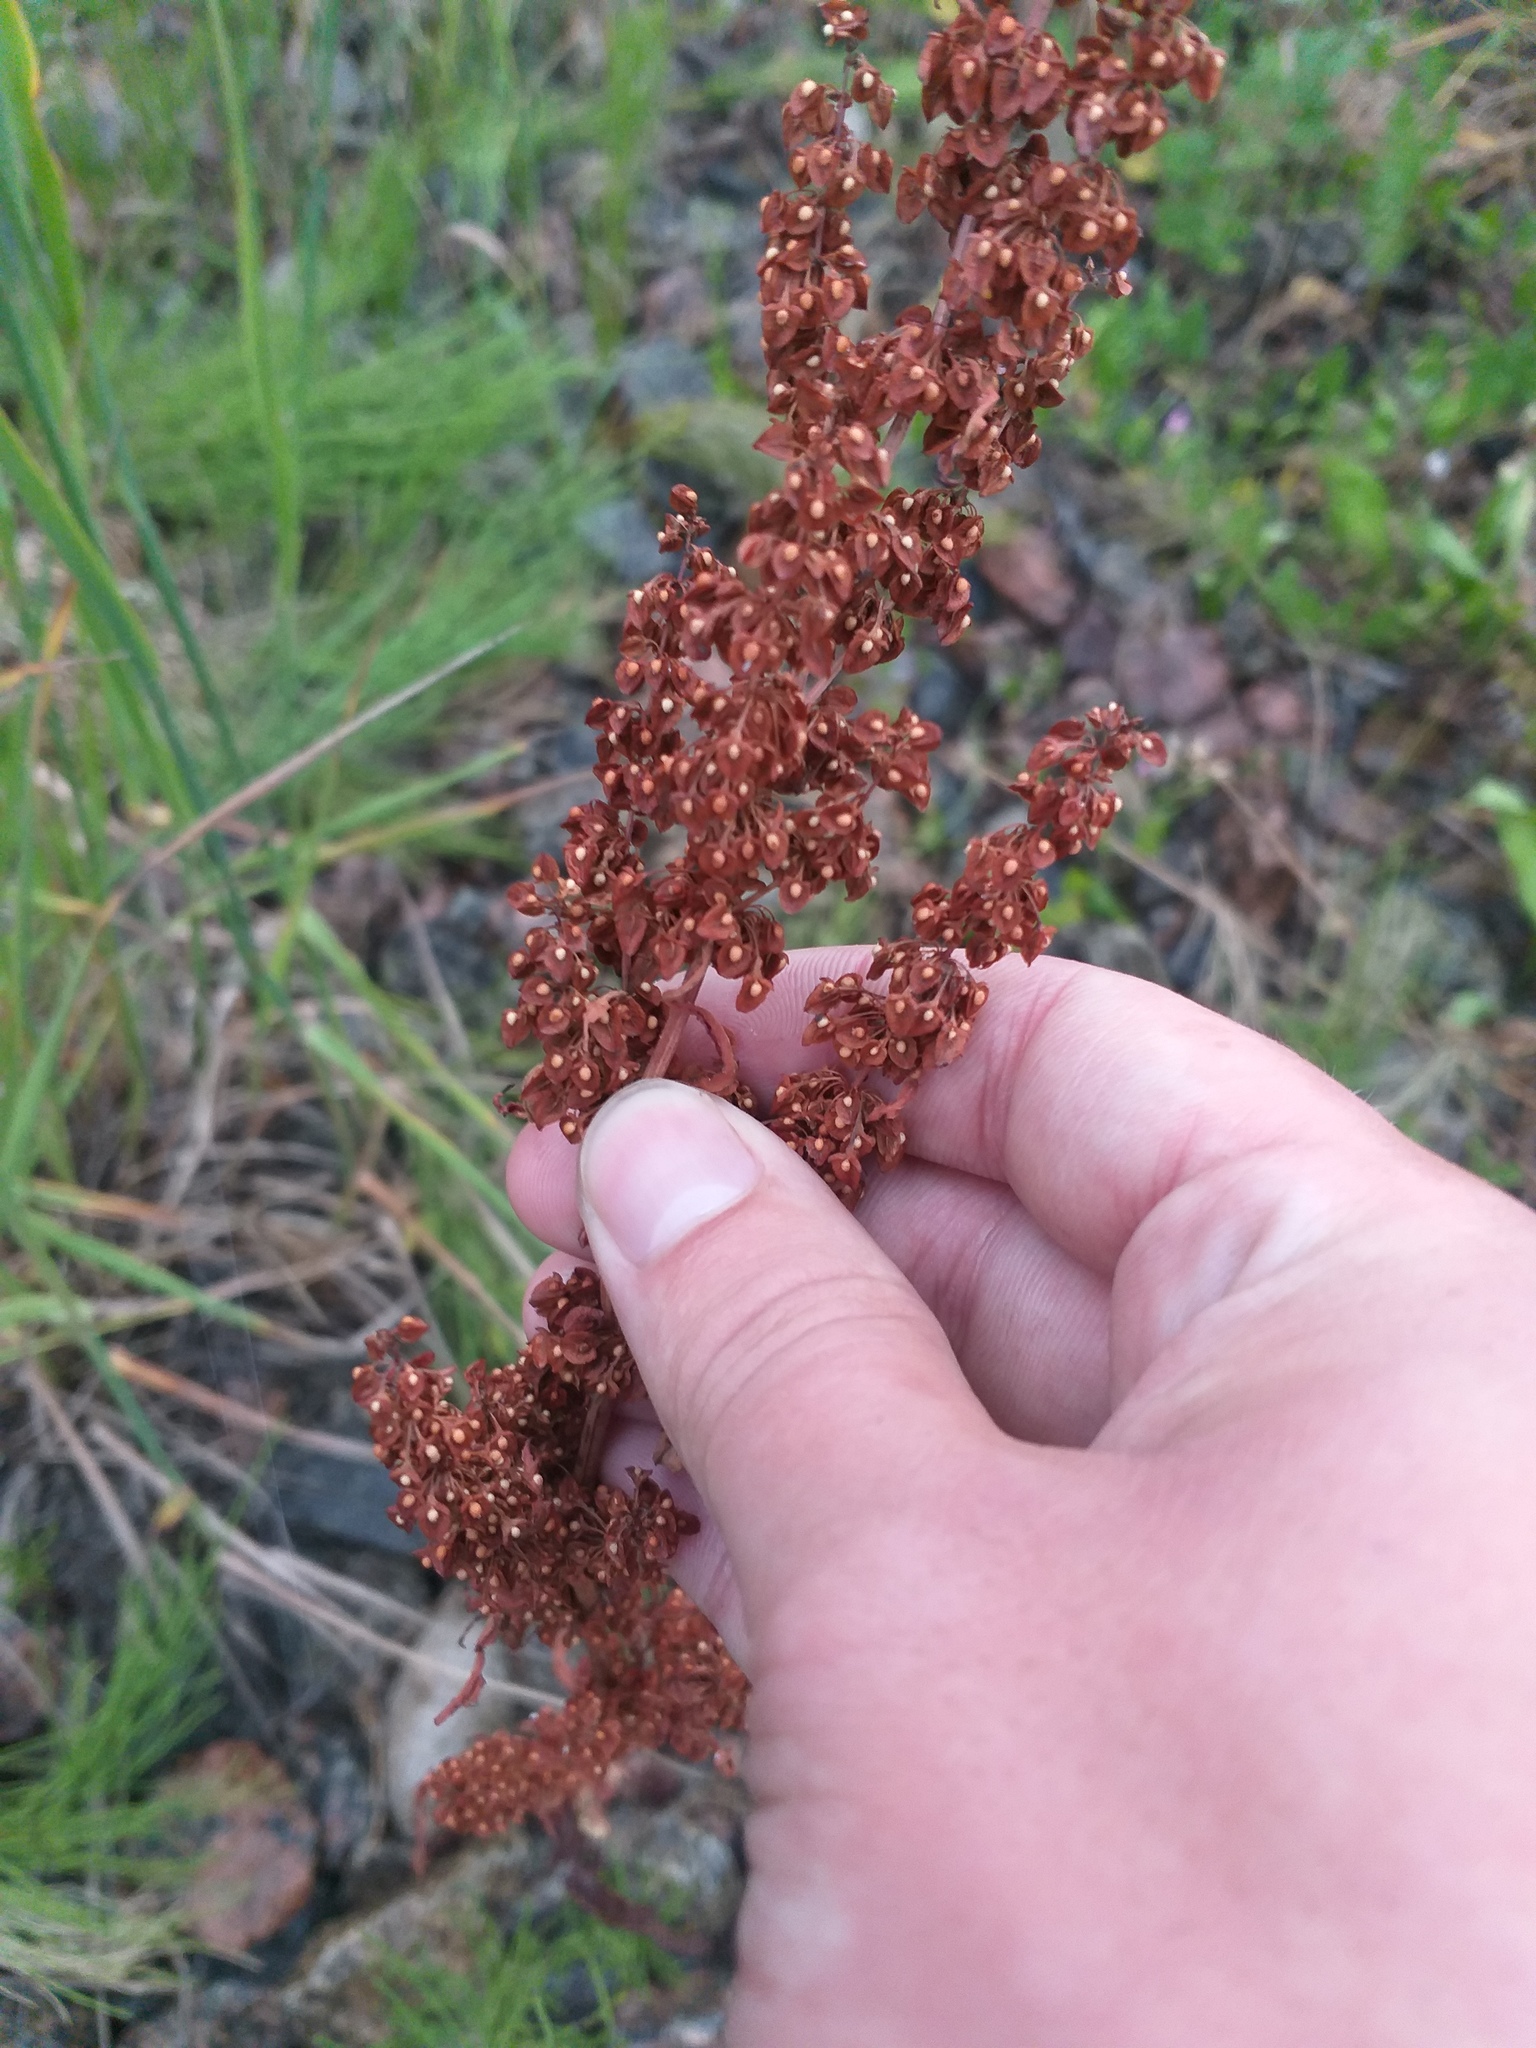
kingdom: Plantae
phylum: Tracheophyta
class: Magnoliopsida
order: Caryophyllales
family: Polygonaceae
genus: Rumex
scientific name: Rumex crispus
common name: Curled dock
